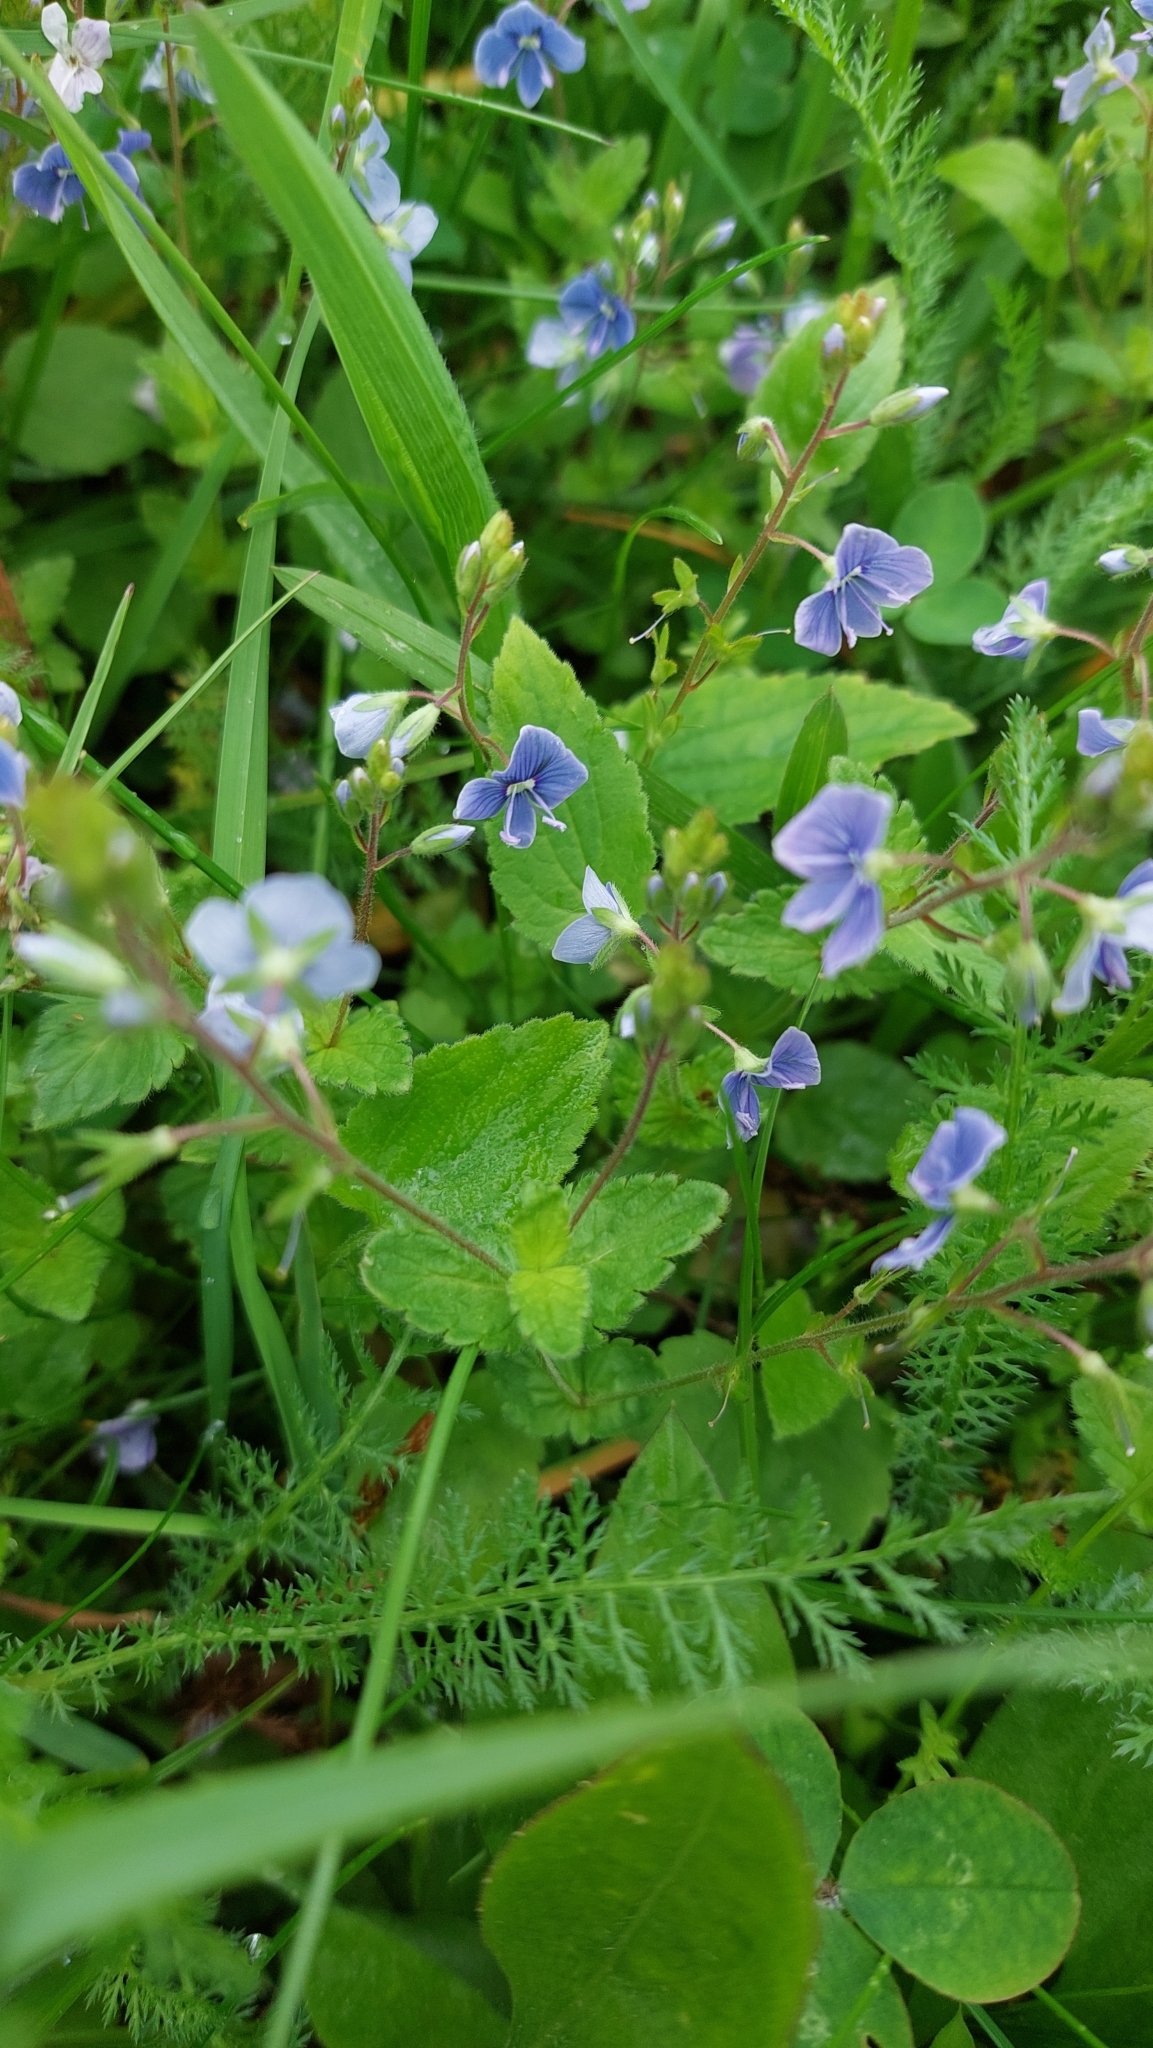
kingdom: Plantae
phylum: Tracheophyta
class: Magnoliopsida
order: Lamiales
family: Plantaginaceae
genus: Veronica
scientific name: Veronica chamaedrys
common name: Germander speedwell
